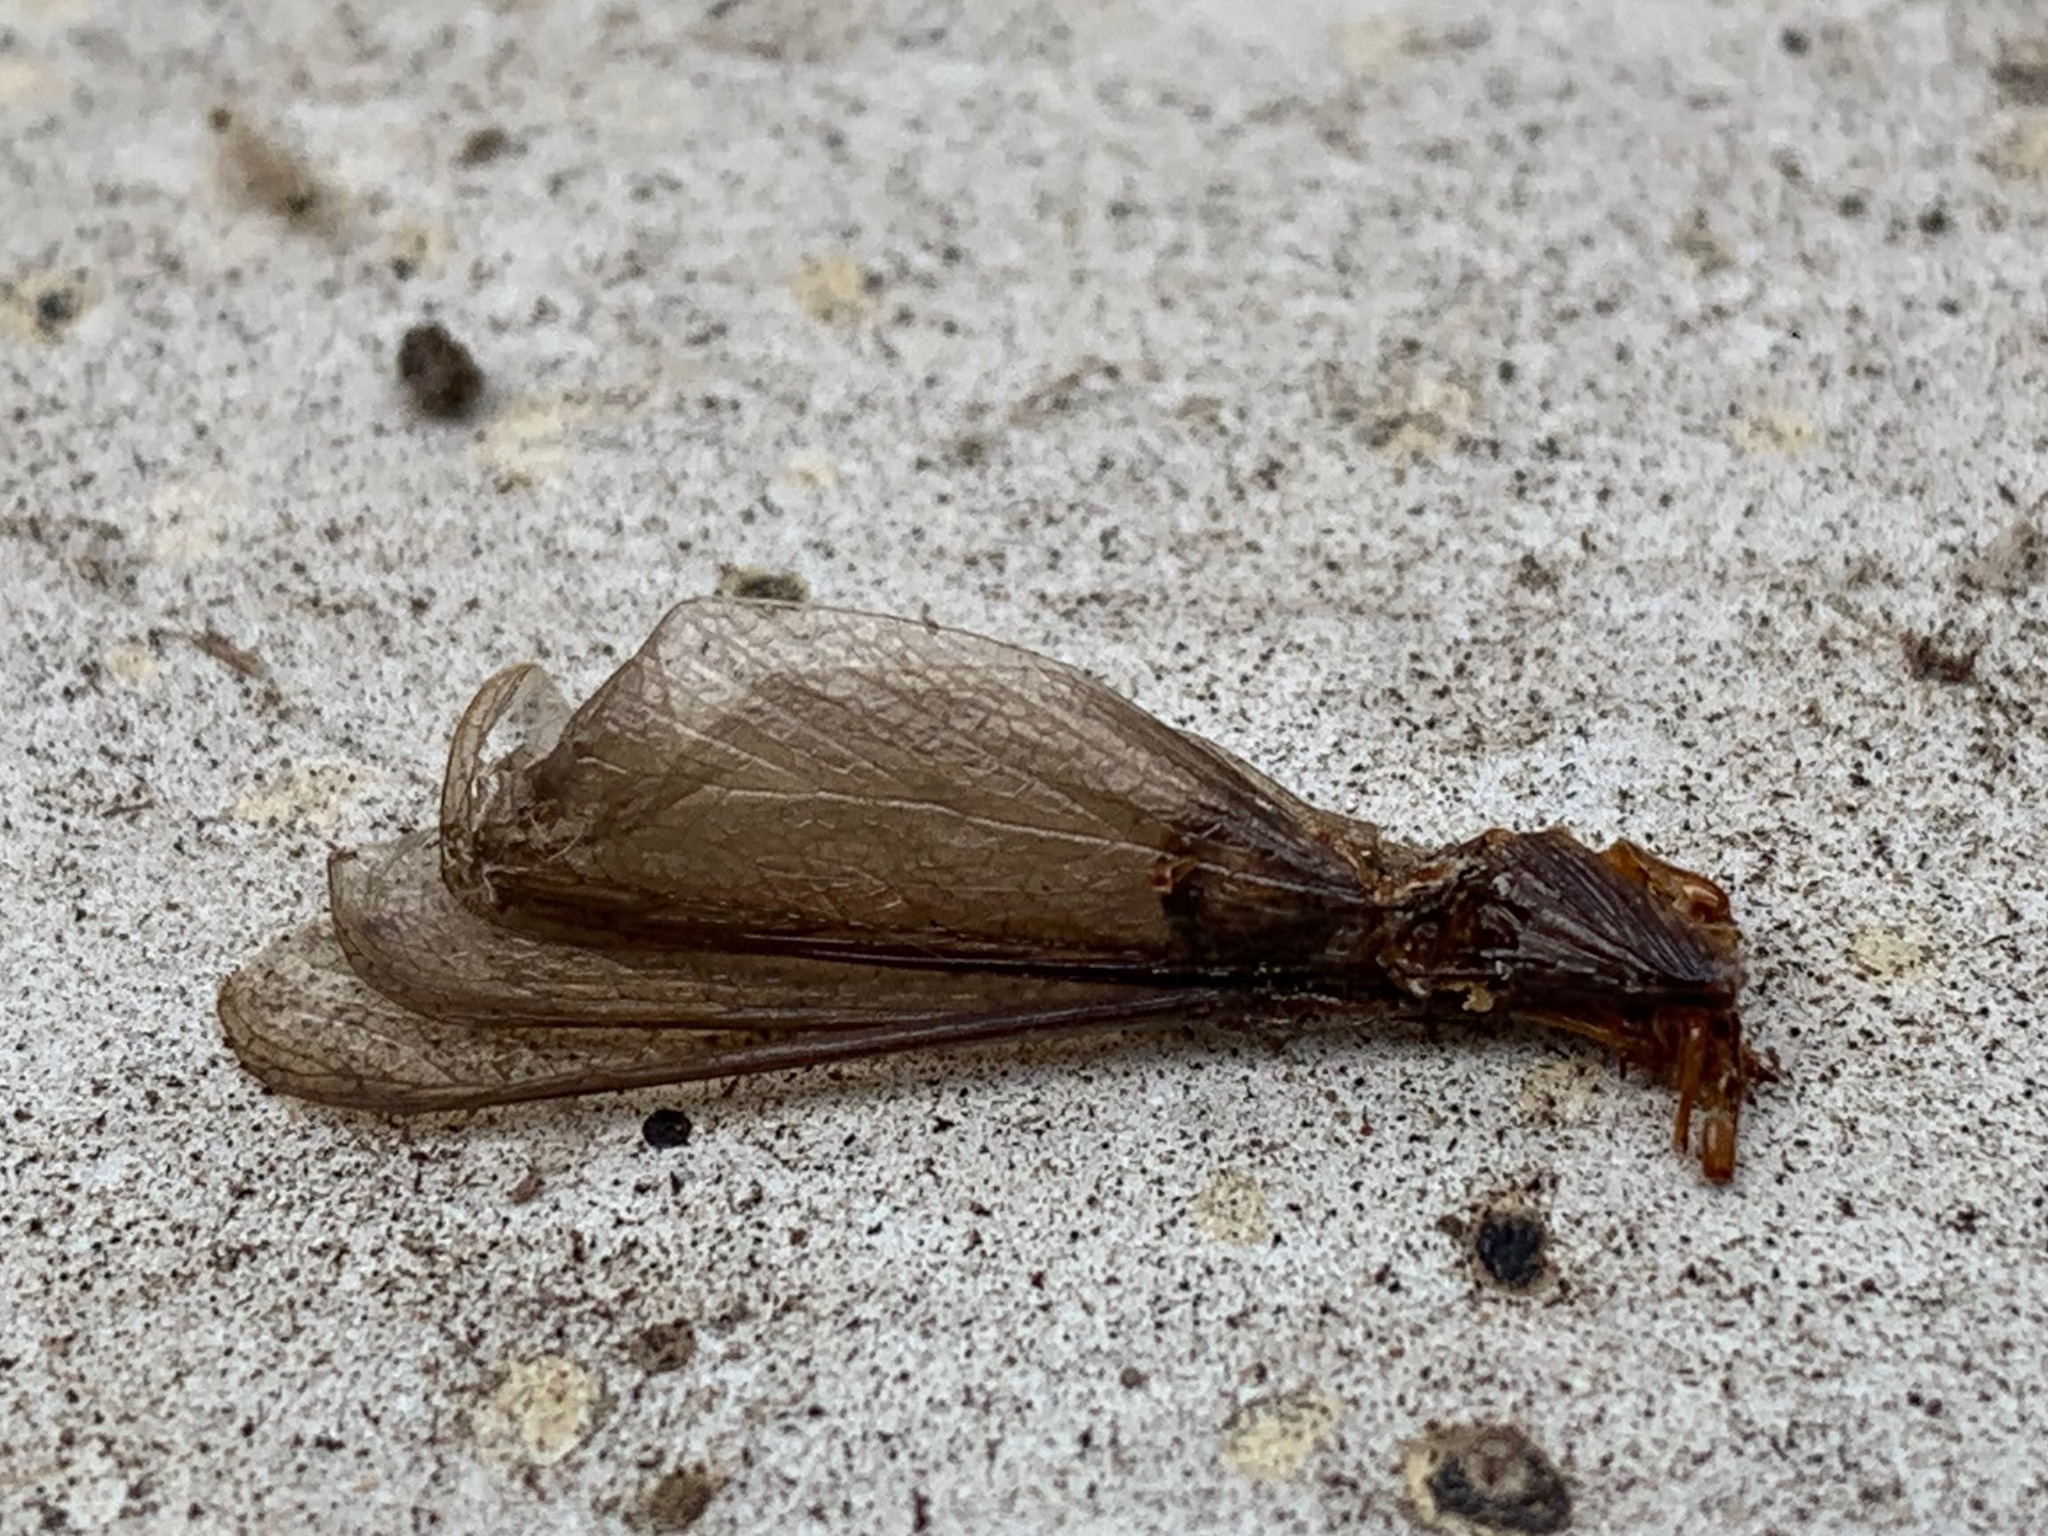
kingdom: Animalia
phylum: Arthropoda
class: Insecta
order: Blattodea
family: Archotermopsidae
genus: Zootermopsis
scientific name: Zootermopsis
